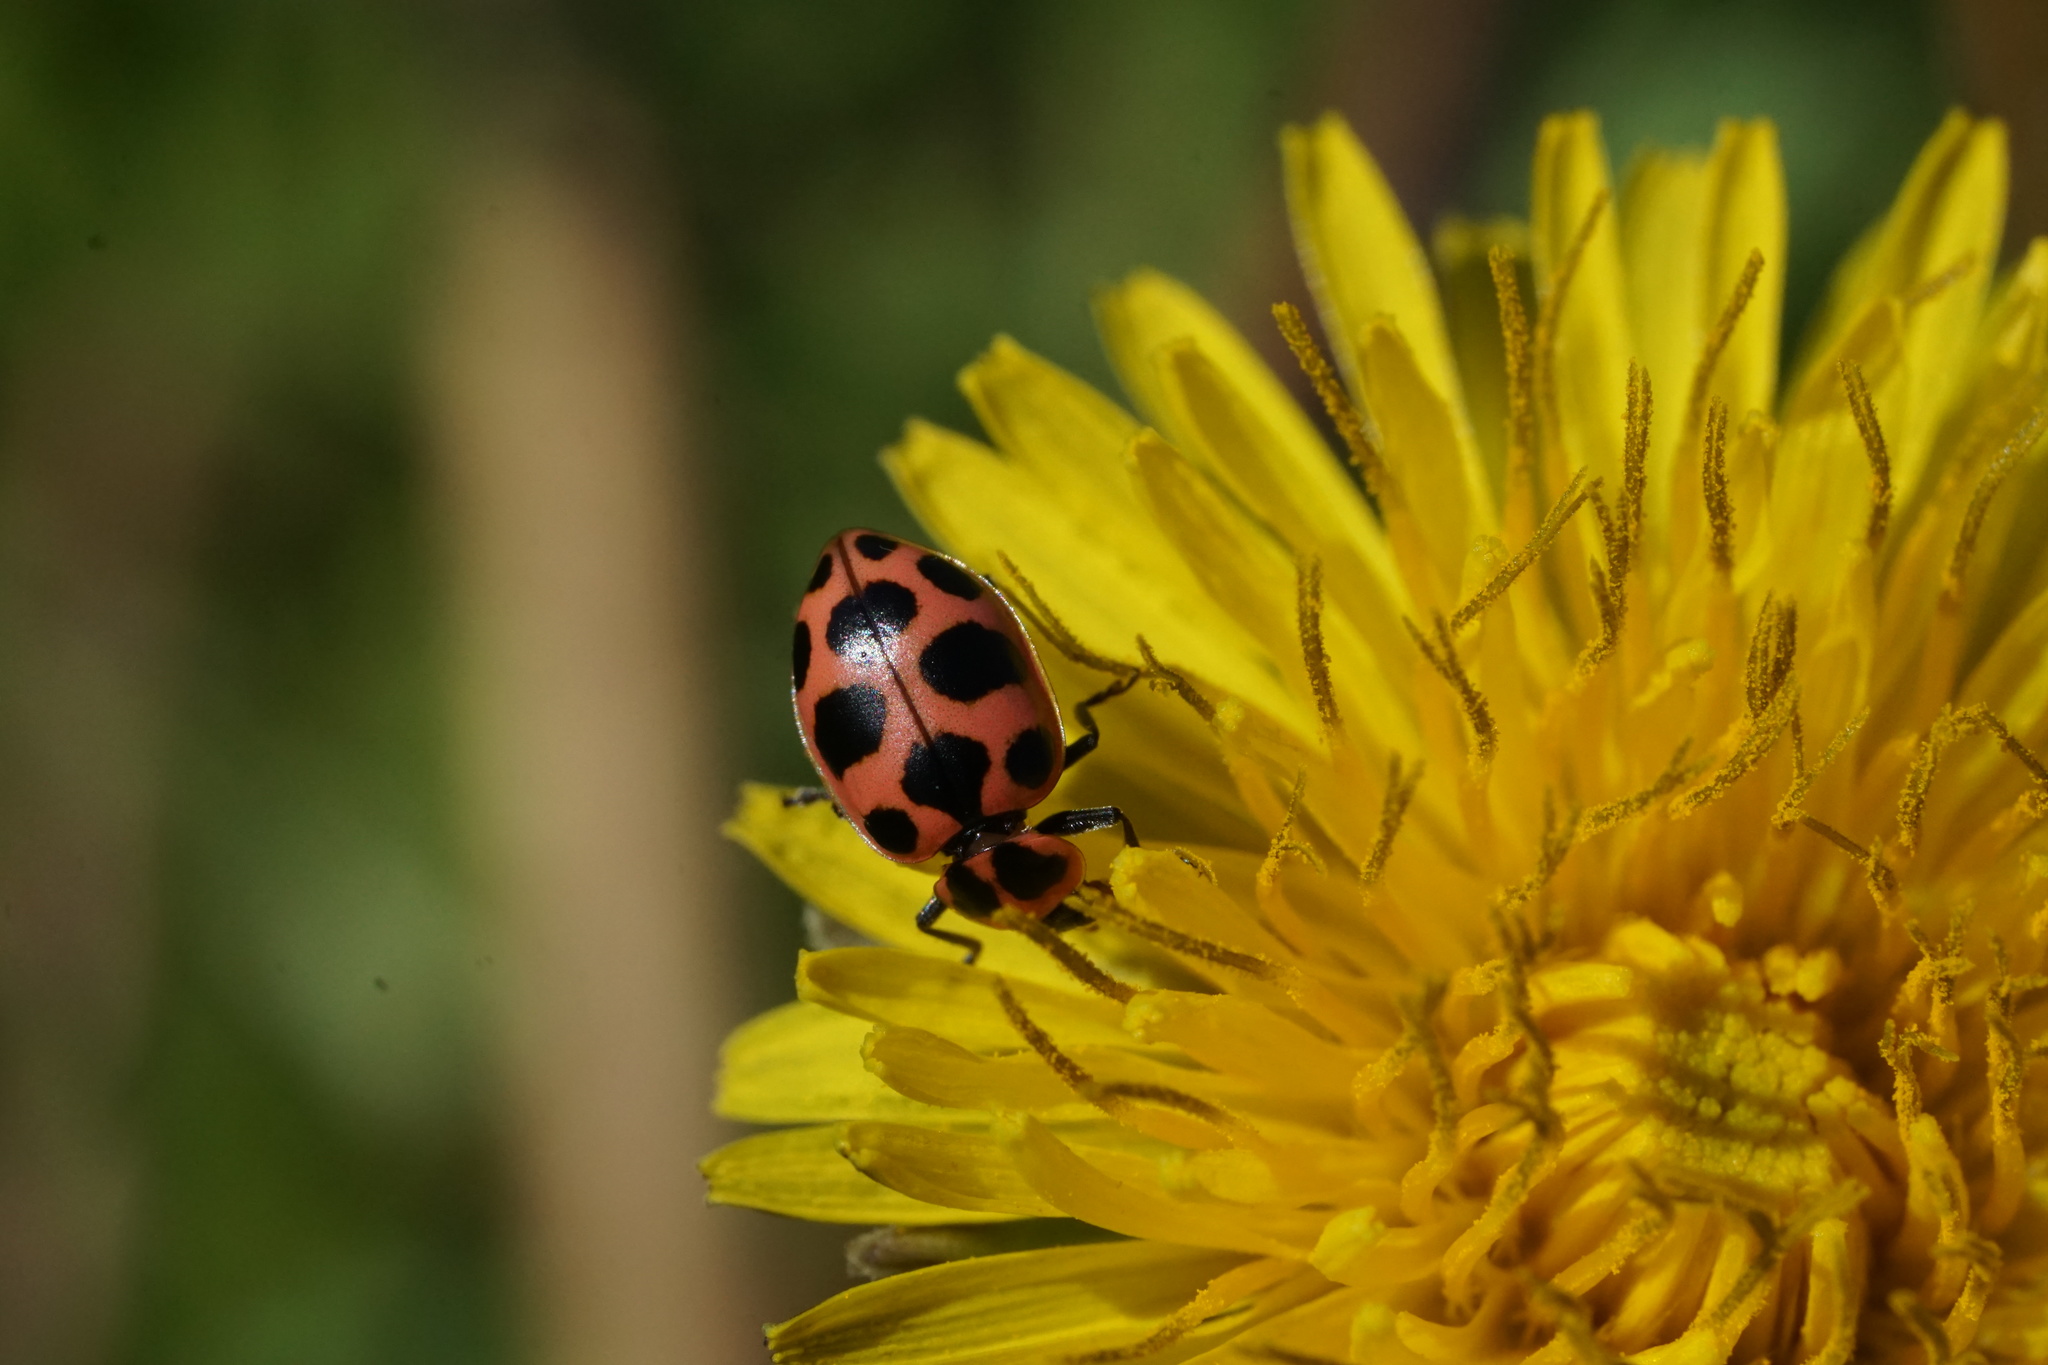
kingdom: Animalia
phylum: Arthropoda
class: Insecta
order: Coleoptera
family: Coccinellidae
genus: Coleomegilla
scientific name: Coleomegilla maculata
